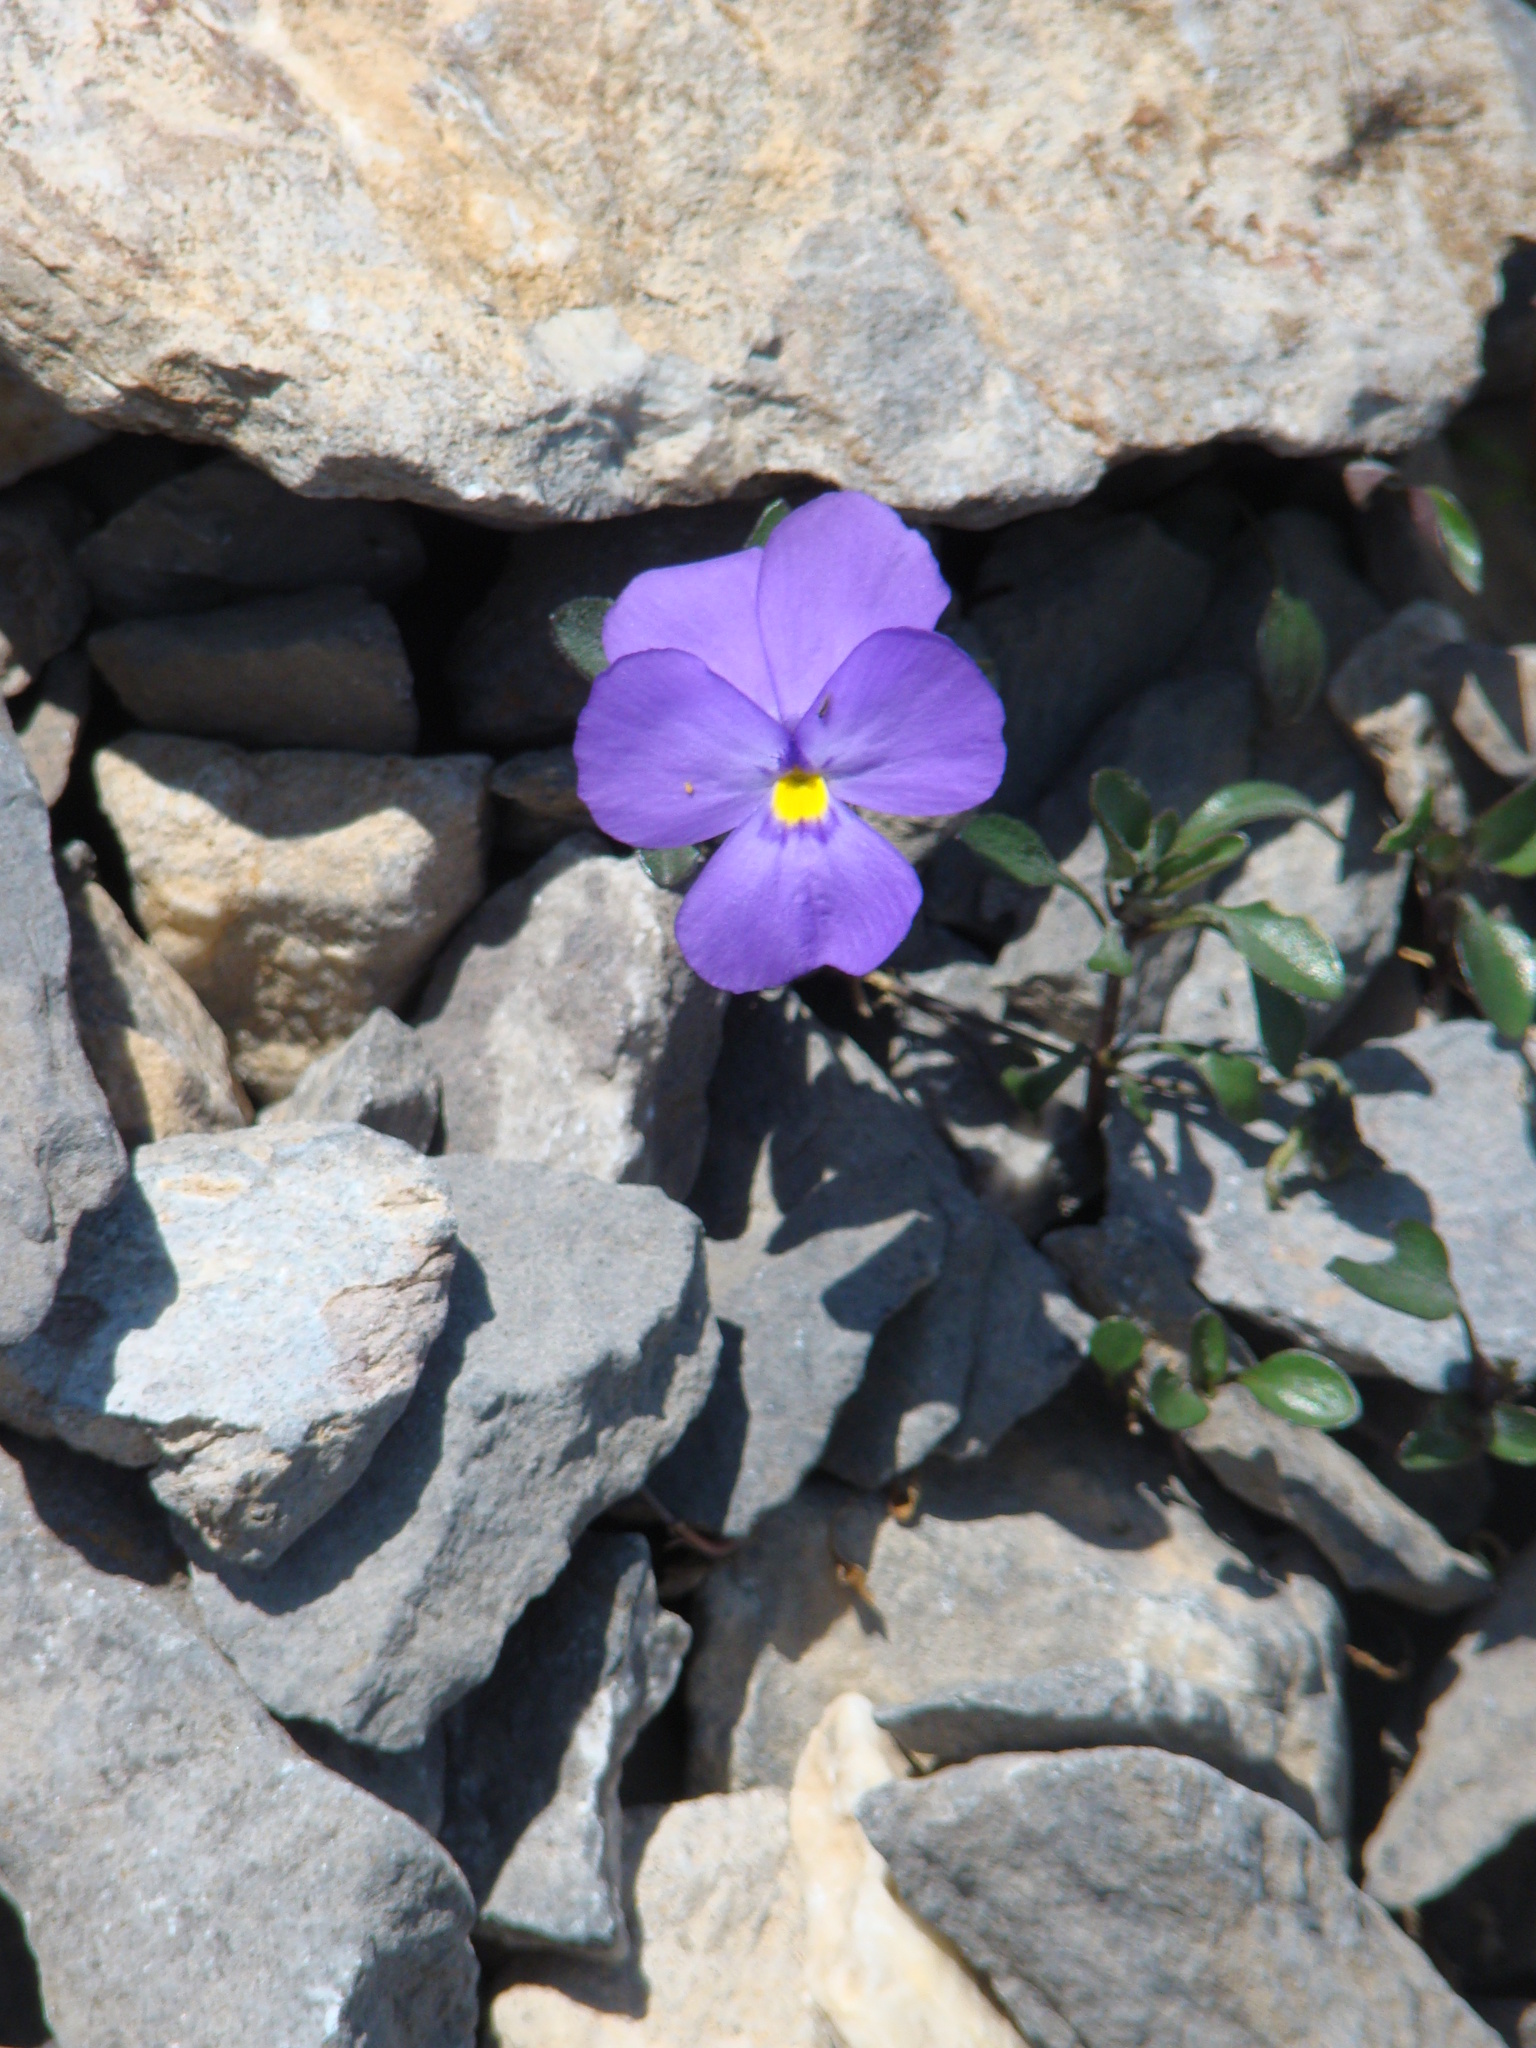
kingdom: Plantae
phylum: Tracheophyta
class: Magnoliopsida
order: Malpighiales
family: Violaceae
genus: Viola
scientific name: Viola cenisia
